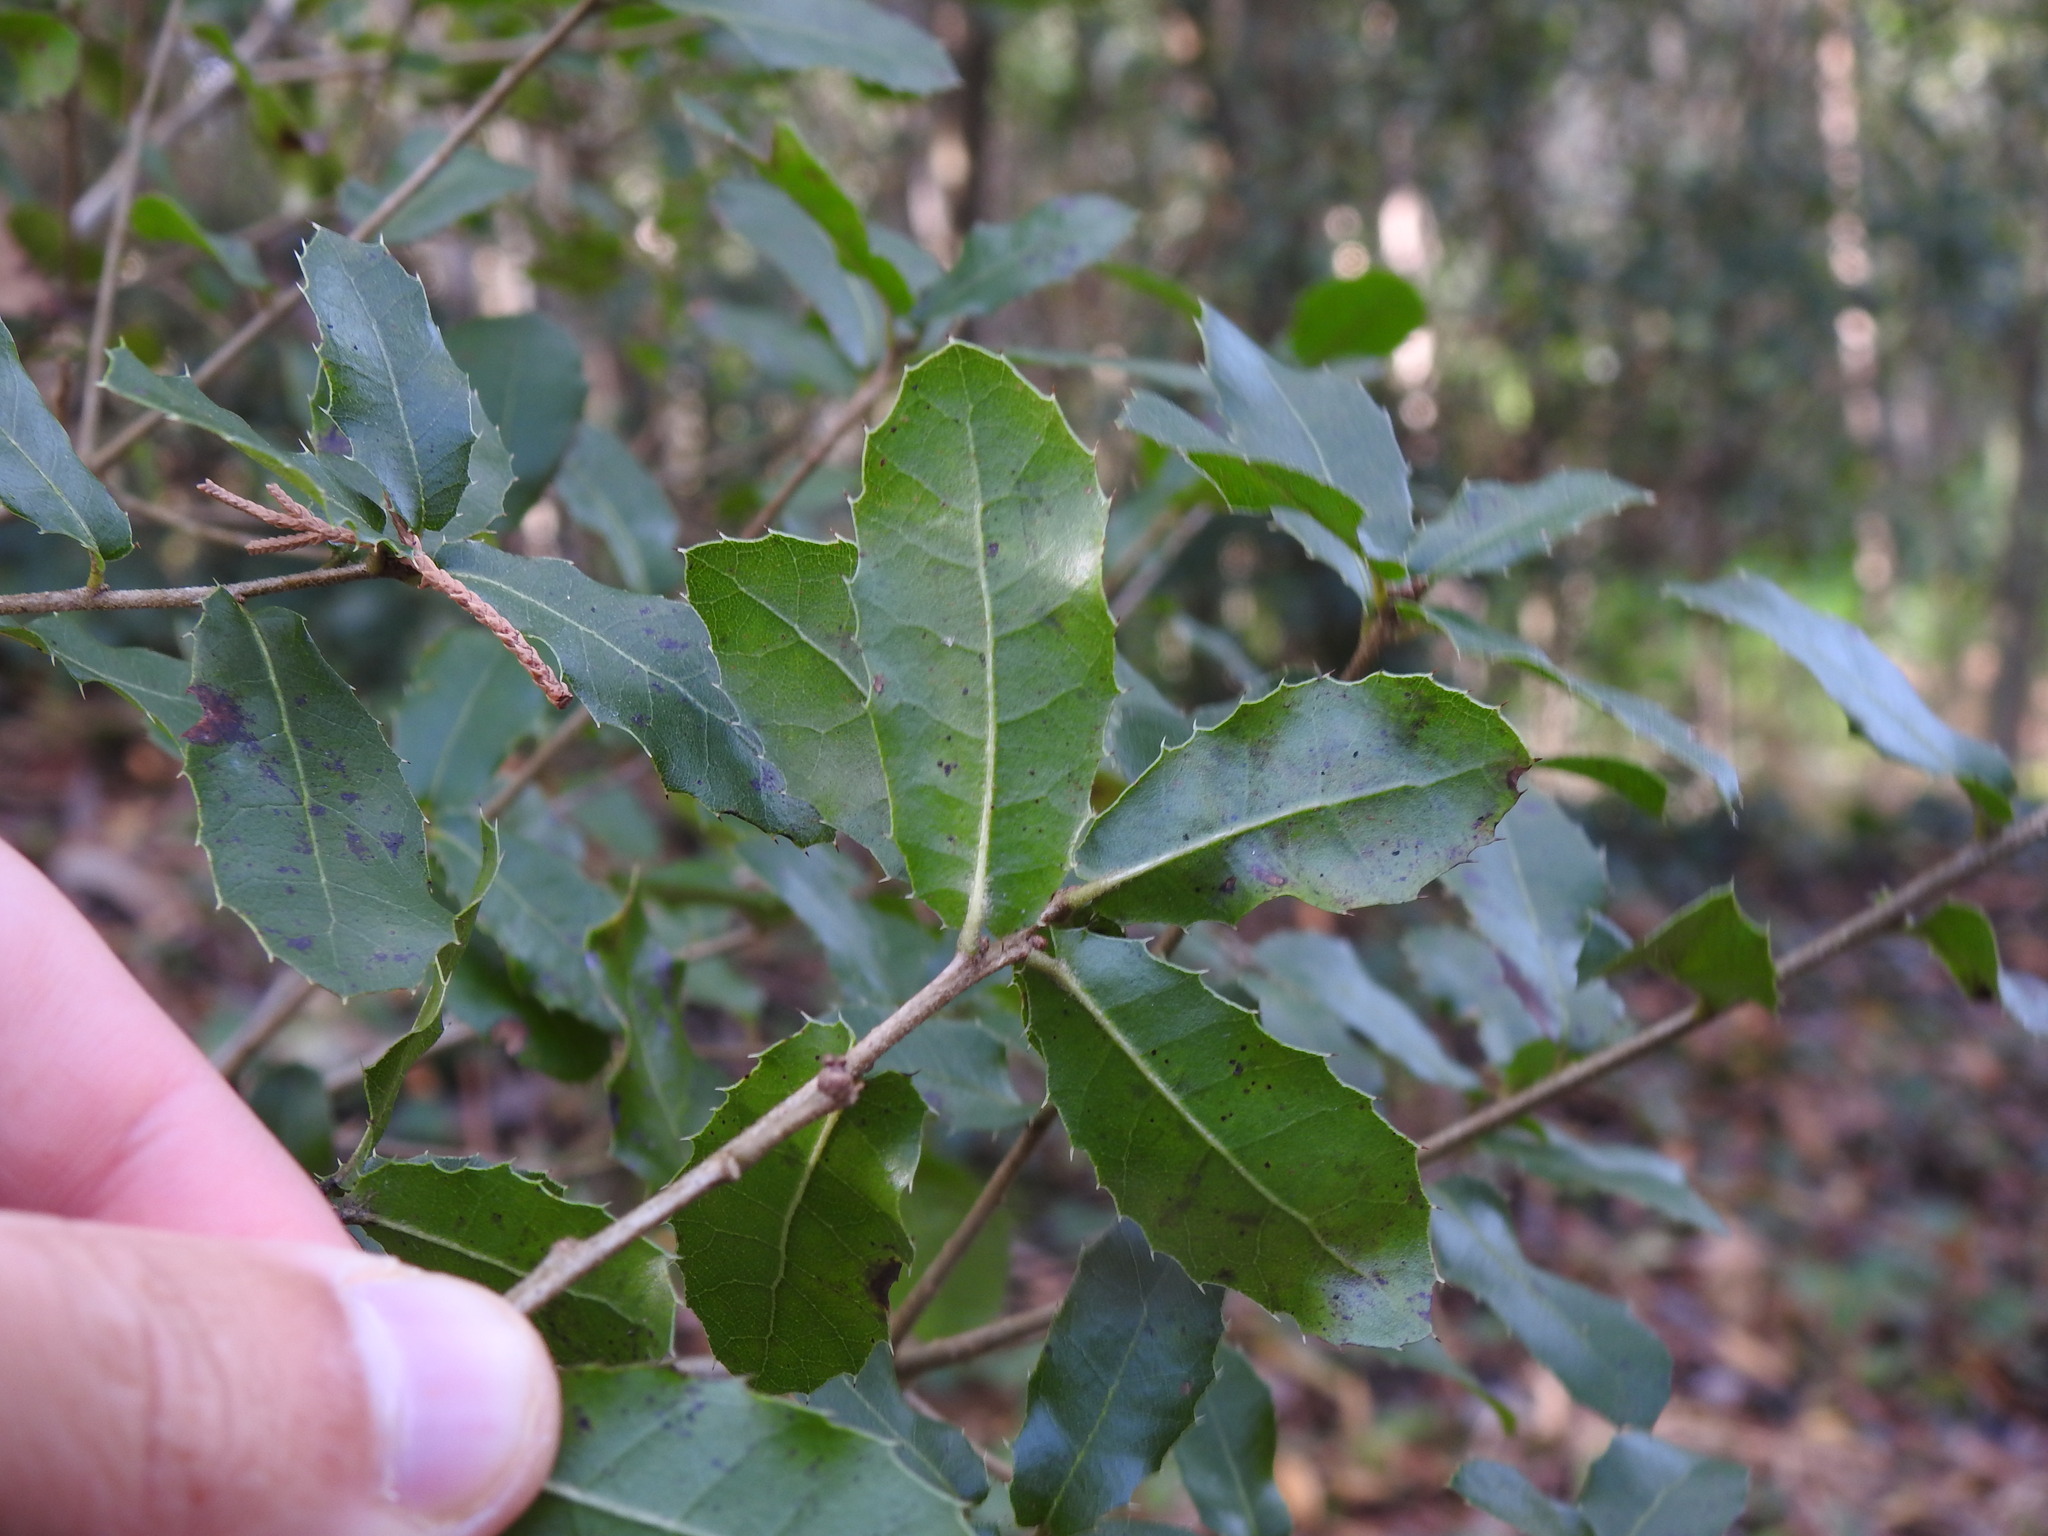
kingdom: Plantae
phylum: Tracheophyta
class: Magnoliopsida
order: Fagales
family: Fagaceae
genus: Quercus
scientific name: Quercus pseudococcifera
